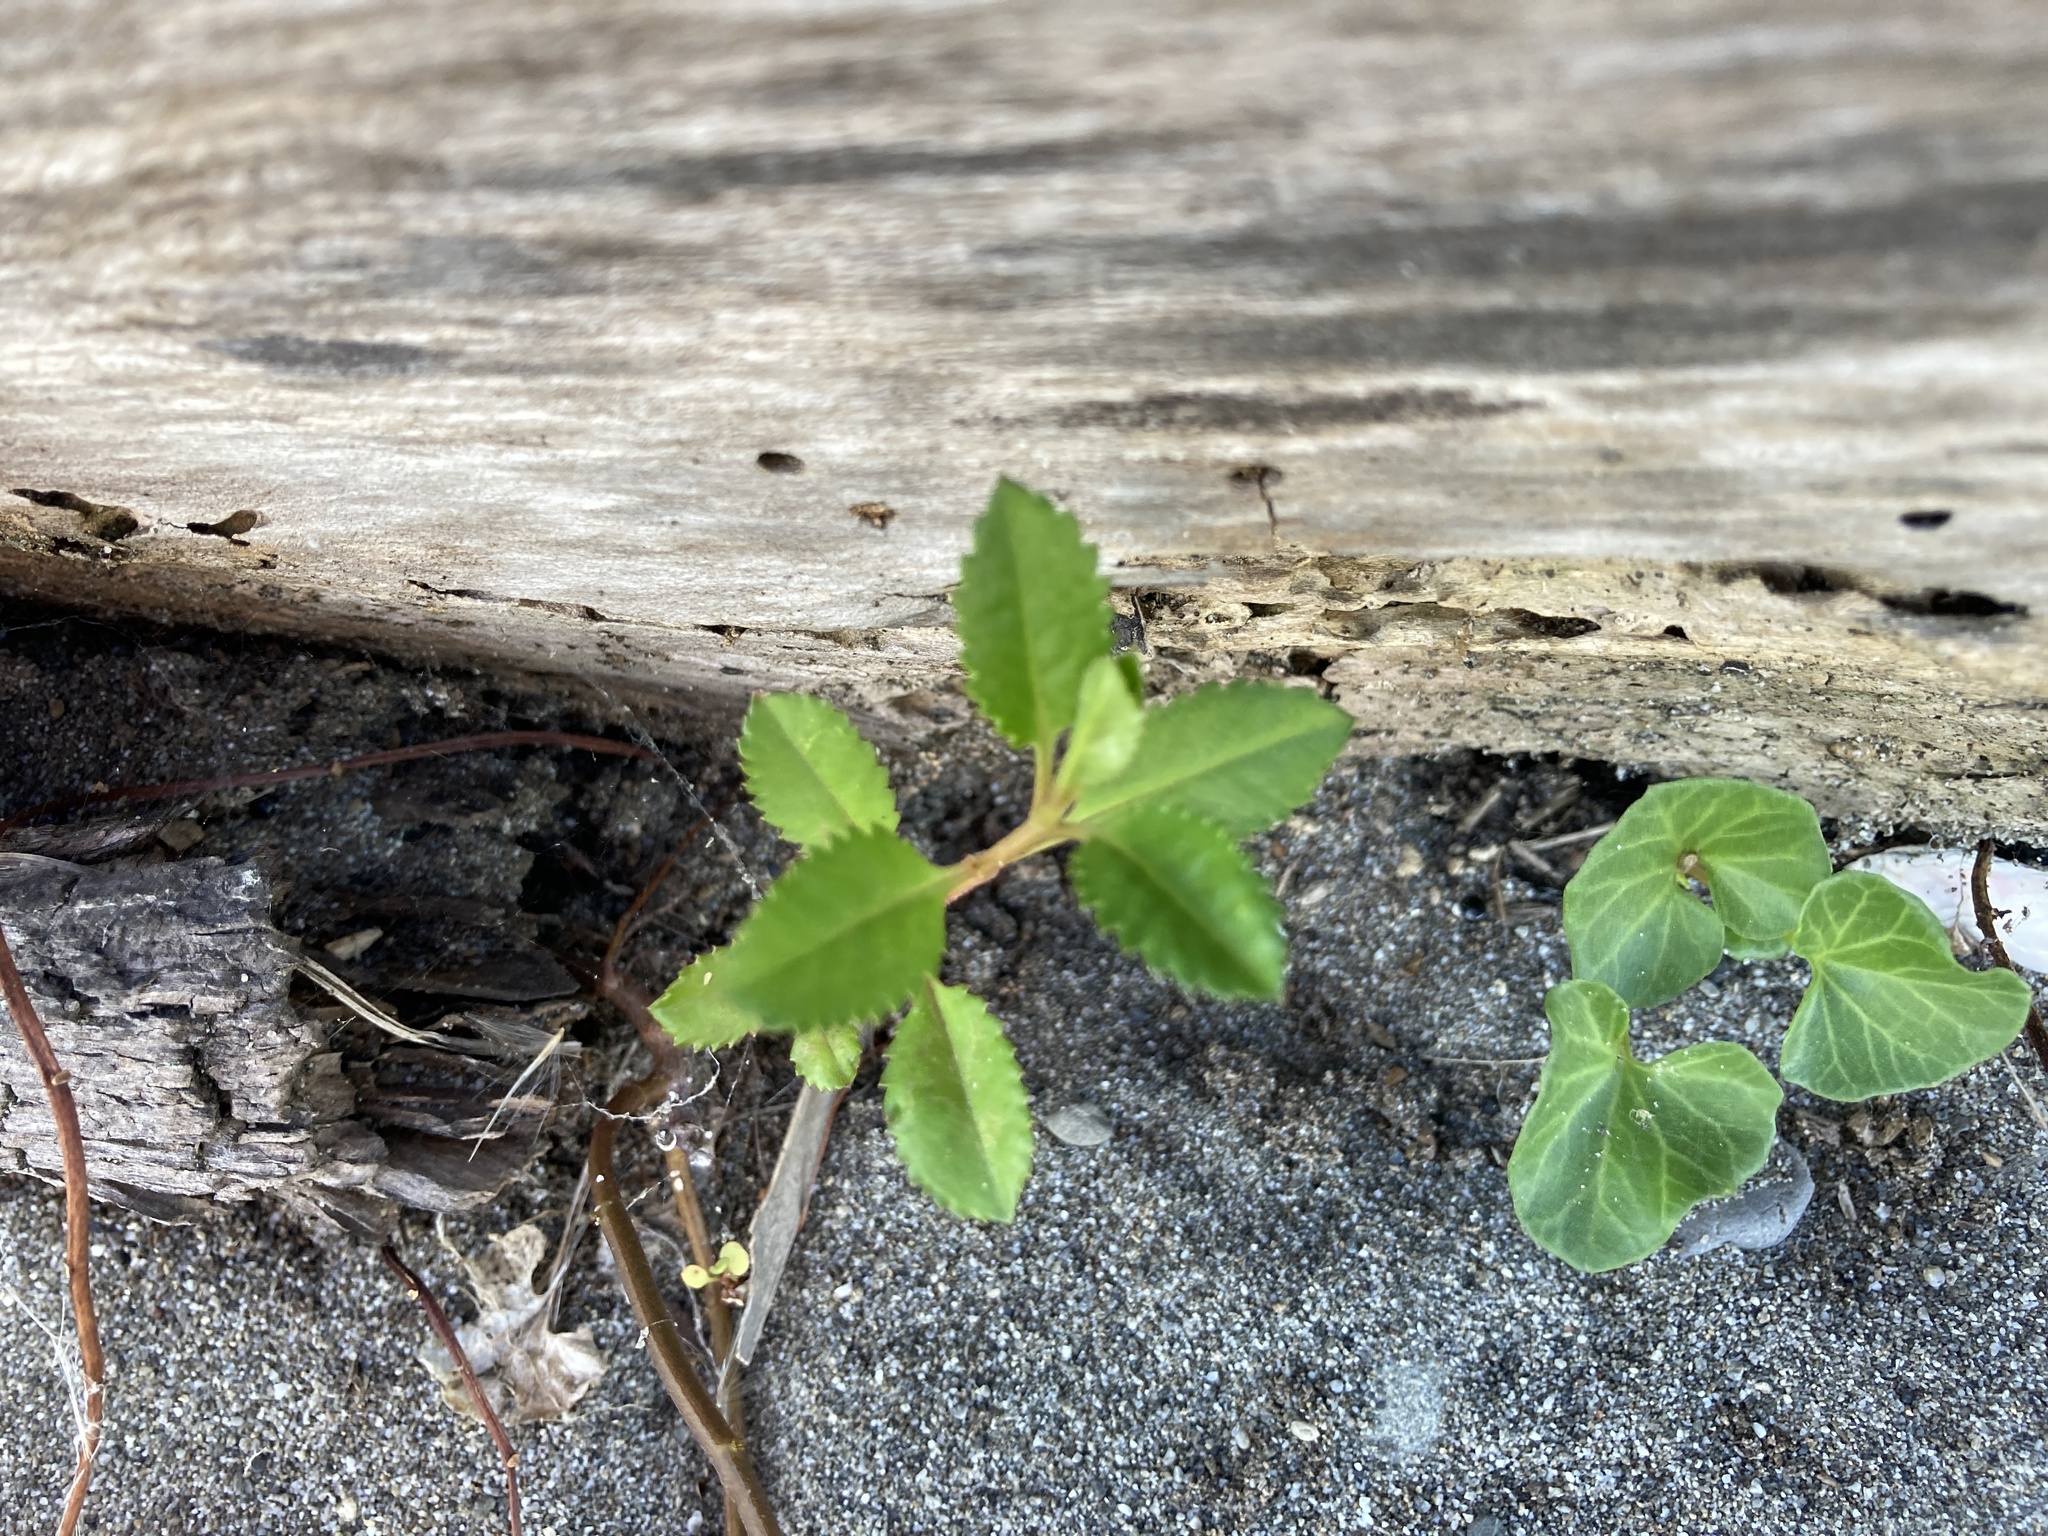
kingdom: Plantae
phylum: Tracheophyta
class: Magnoliopsida
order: Saxifragales
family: Haloragaceae
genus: Haloragis
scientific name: Haloragis erecta
